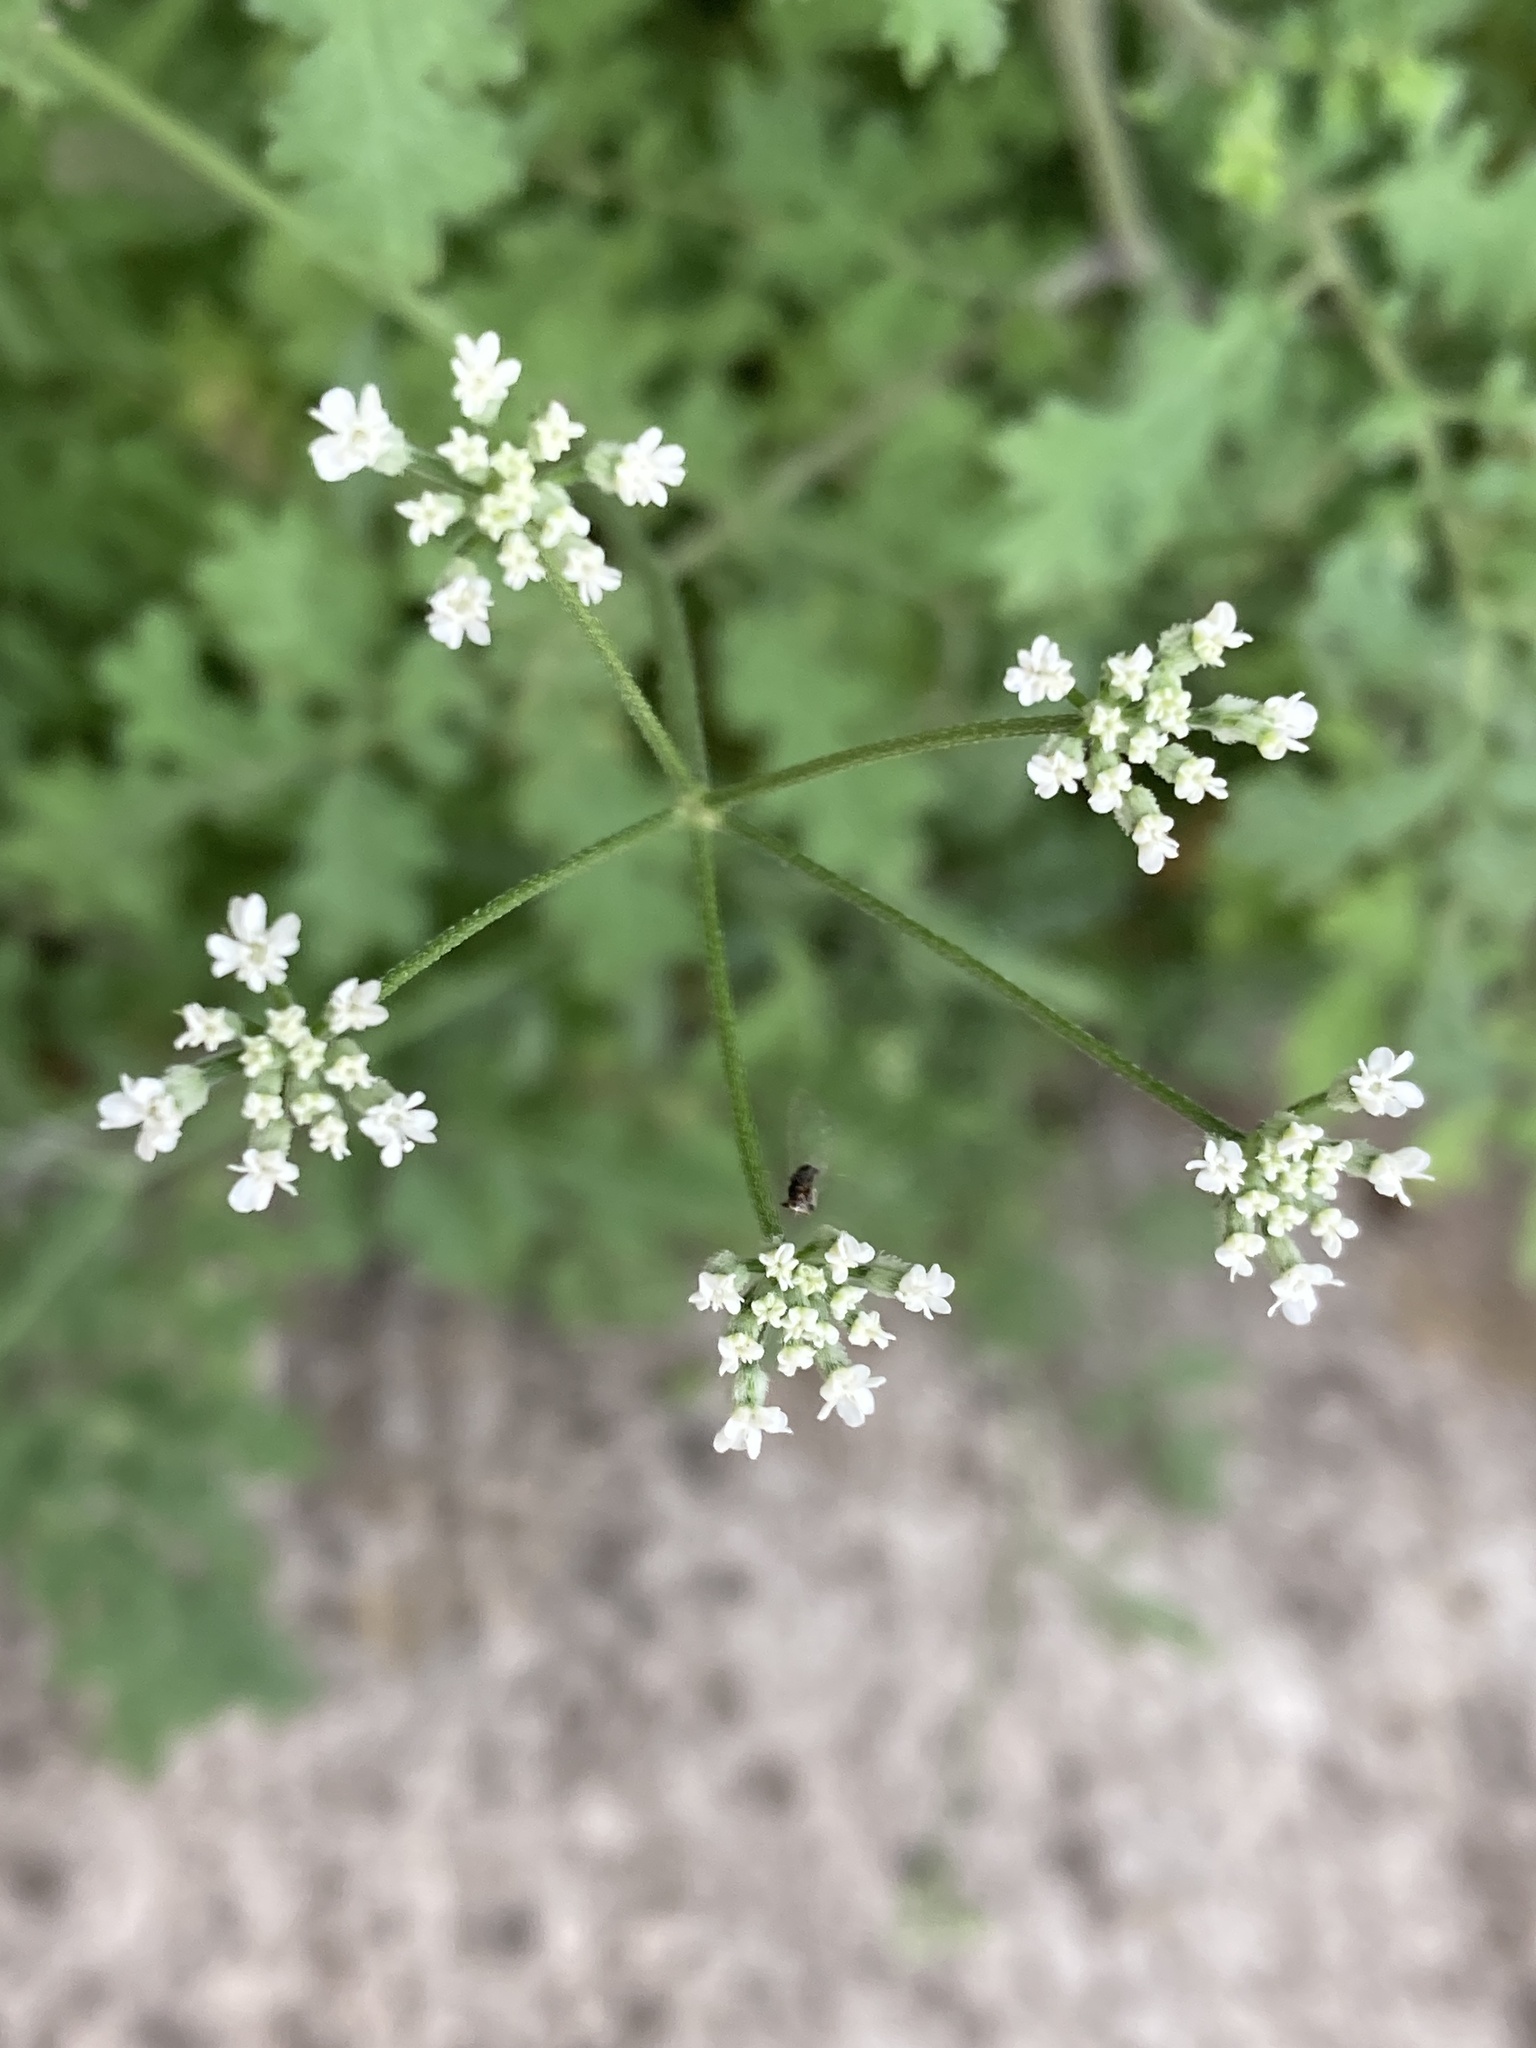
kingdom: Plantae
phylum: Tracheophyta
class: Magnoliopsida
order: Apiales
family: Apiaceae
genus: Torilis
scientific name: Torilis arvensis
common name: Spreading hedge-parsley
